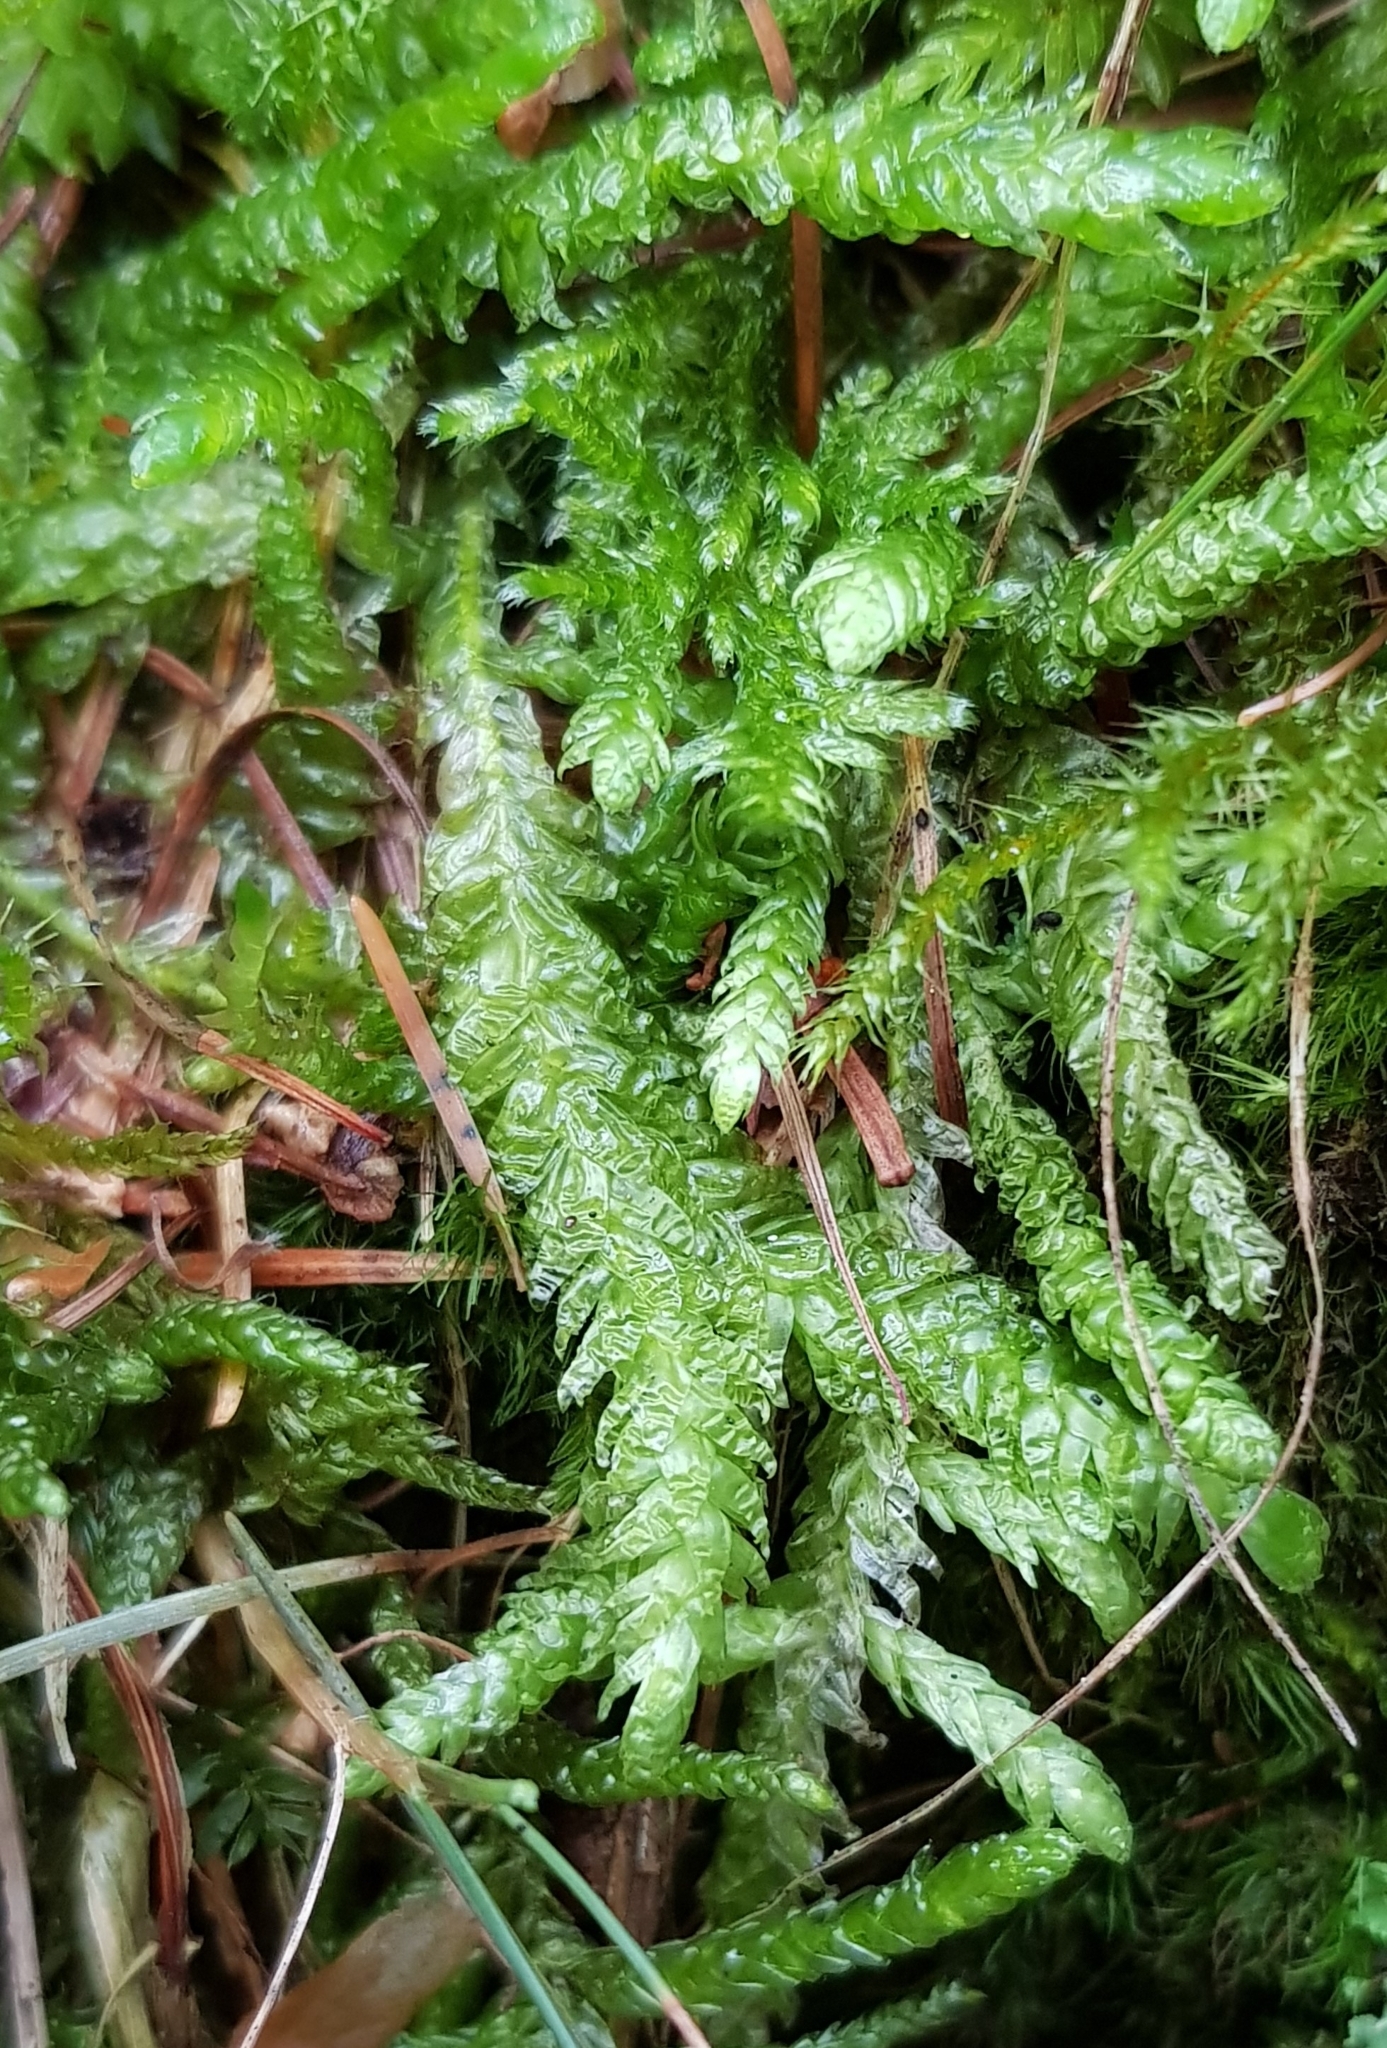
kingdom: Plantae
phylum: Bryophyta
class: Bryopsida
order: Hypnales
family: Plagiotheciaceae
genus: Plagiothecium
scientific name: Plagiothecium undulatum
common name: Waved silk-moss
